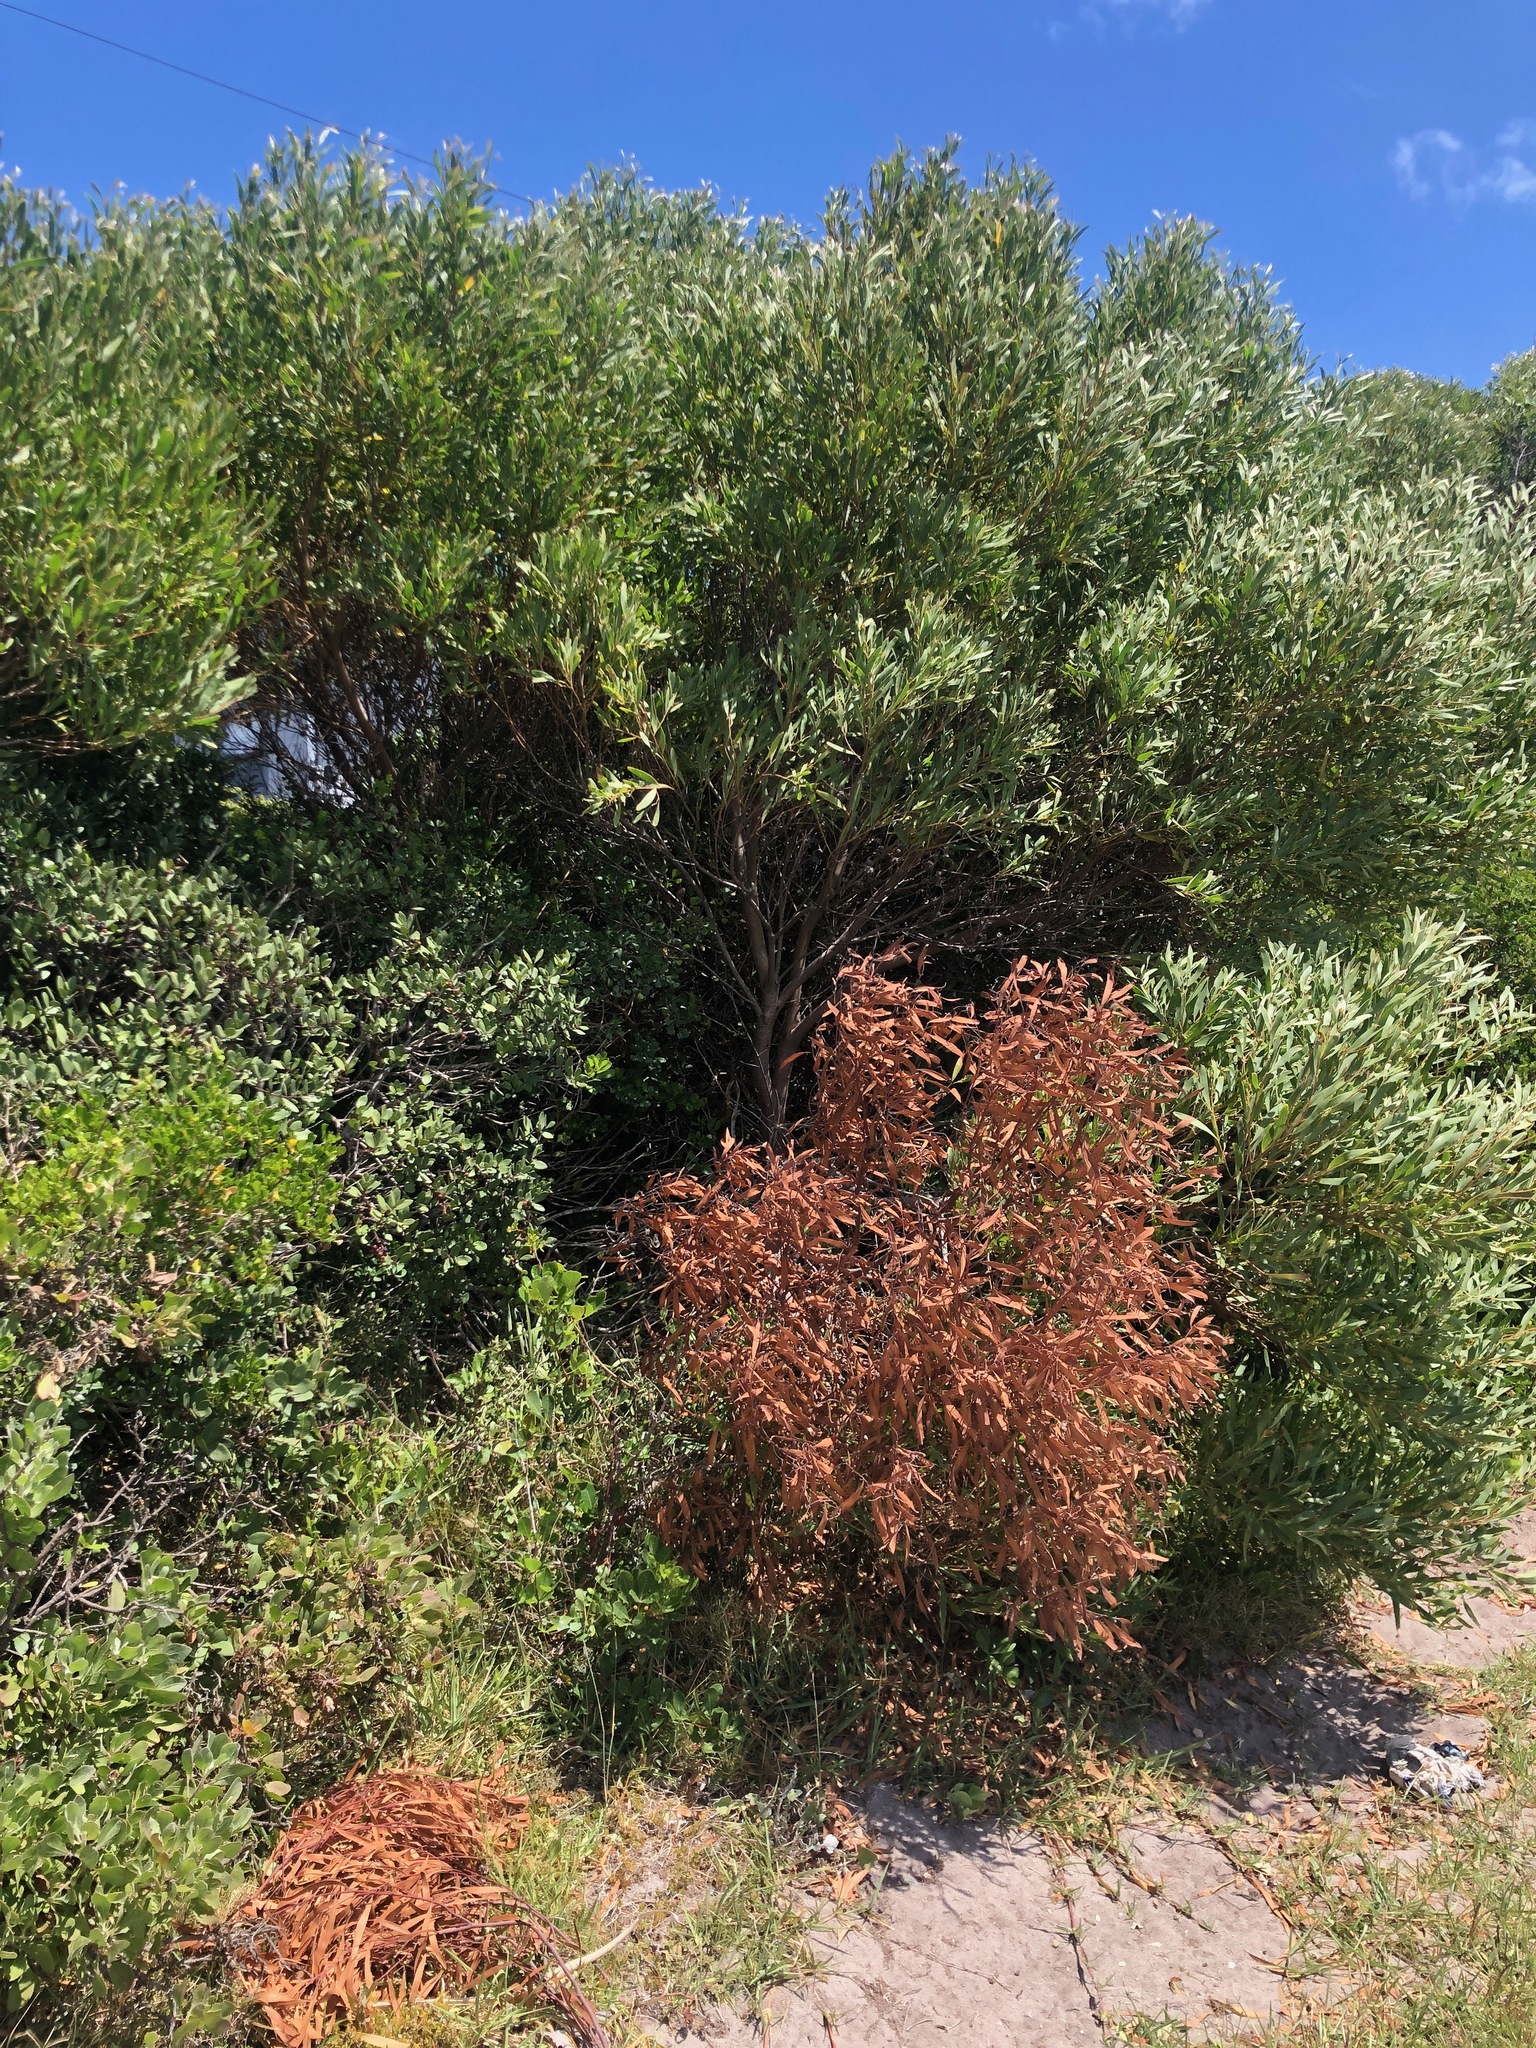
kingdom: Plantae
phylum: Tracheophyta
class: Magnoliopsida
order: Fabales
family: Fabaceae
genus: Acacia
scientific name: Acacia cyclops
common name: Coastal wattle
